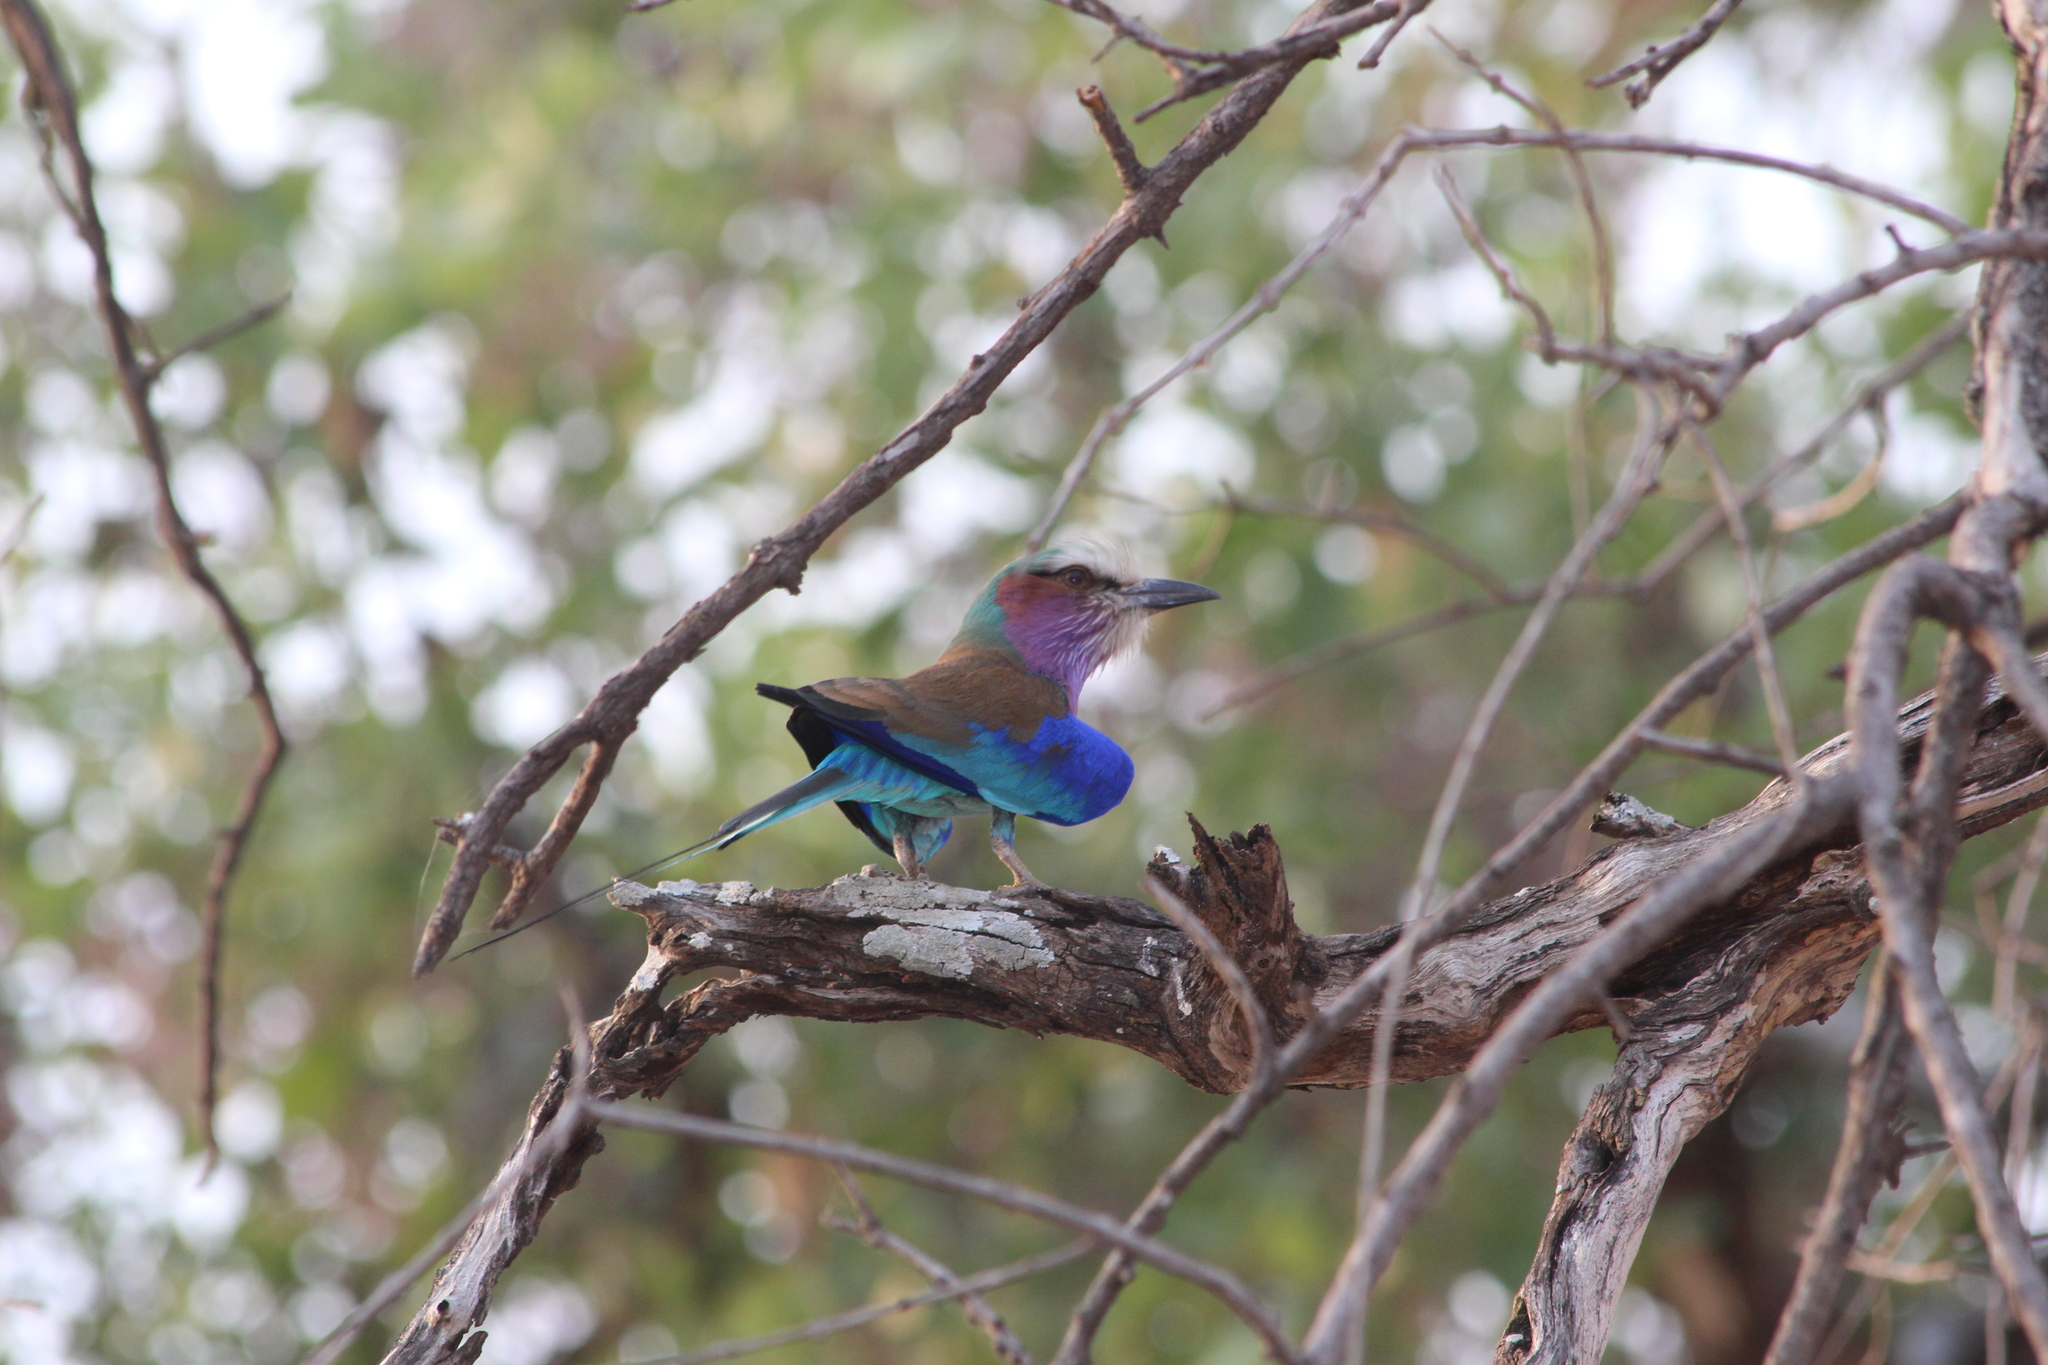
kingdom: Animalia
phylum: Chordata
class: Aves
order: Coraciiformes
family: Coraciidae
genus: Coracias
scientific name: Coracias caudatus
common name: Lilac-breasted roller
